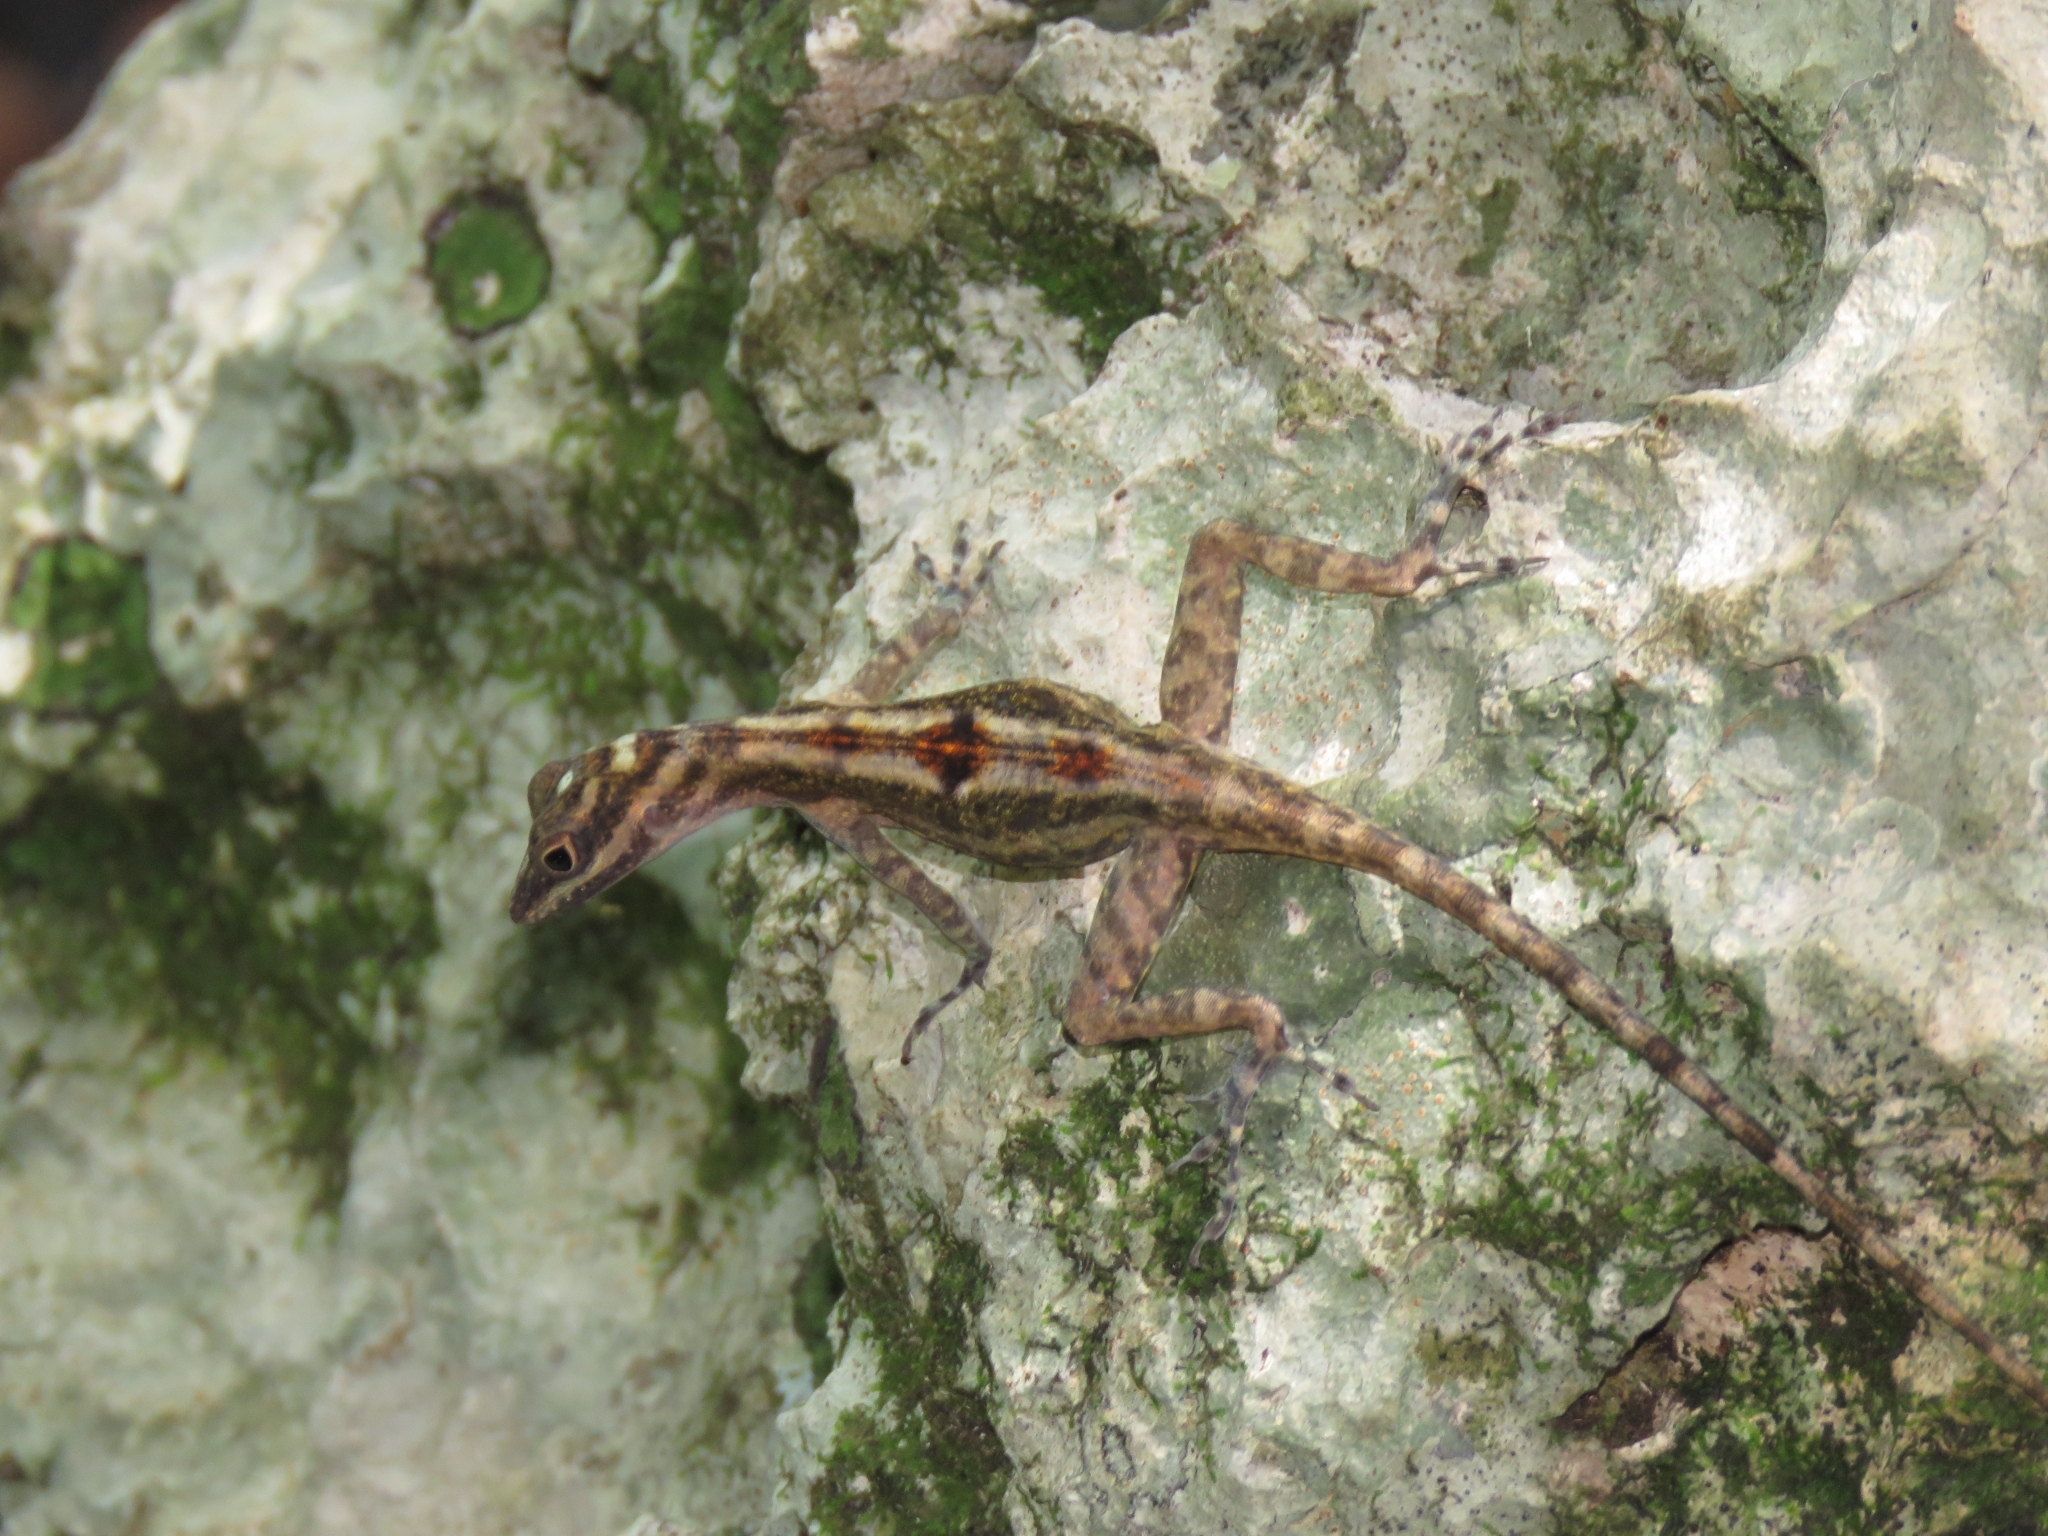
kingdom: Animalia
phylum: Chordata
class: Squamata
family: Dactyloidae
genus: Anolis
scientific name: Anolis lucius
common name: Cave anole
